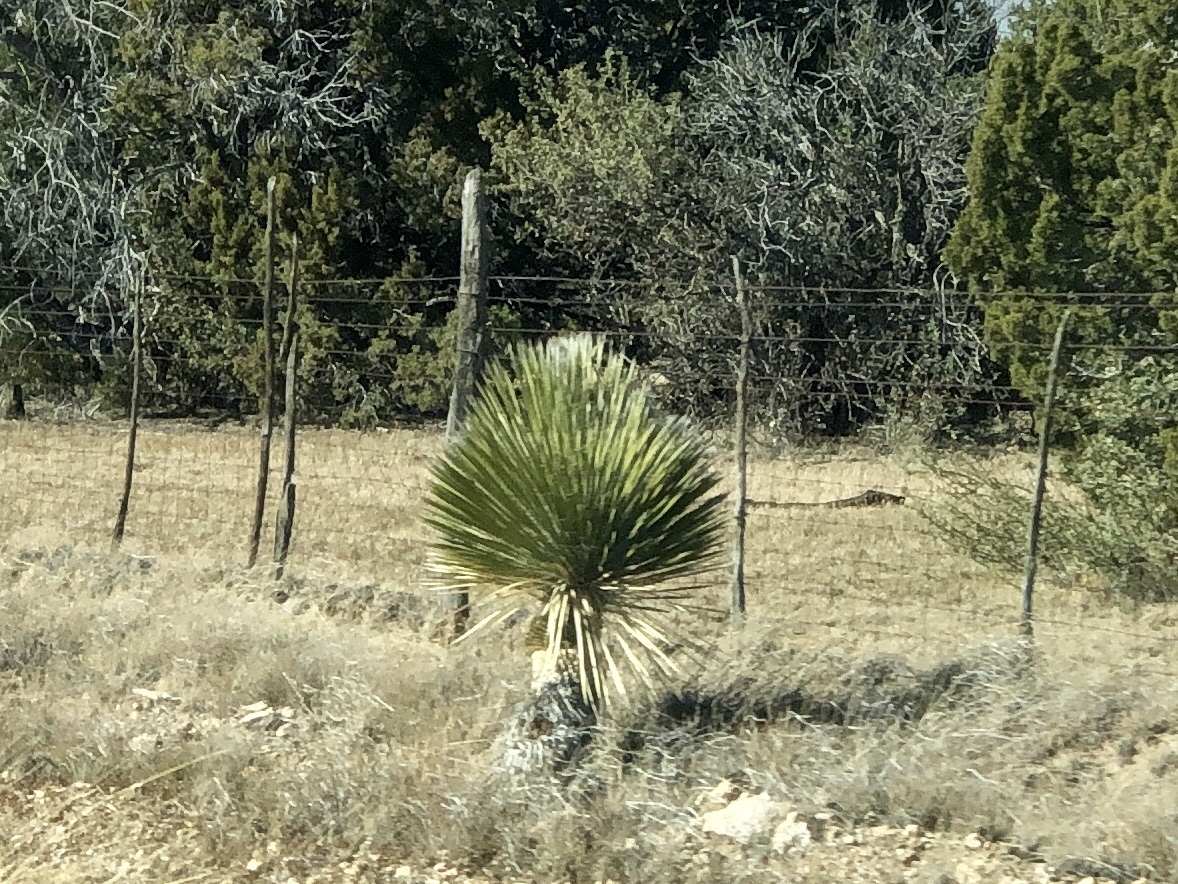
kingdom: Plantae
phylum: Tracheophyta
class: Liliopsida
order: Asparagales
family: Asparagaceae
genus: Yucca
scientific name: Yucca elata
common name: Palmella
